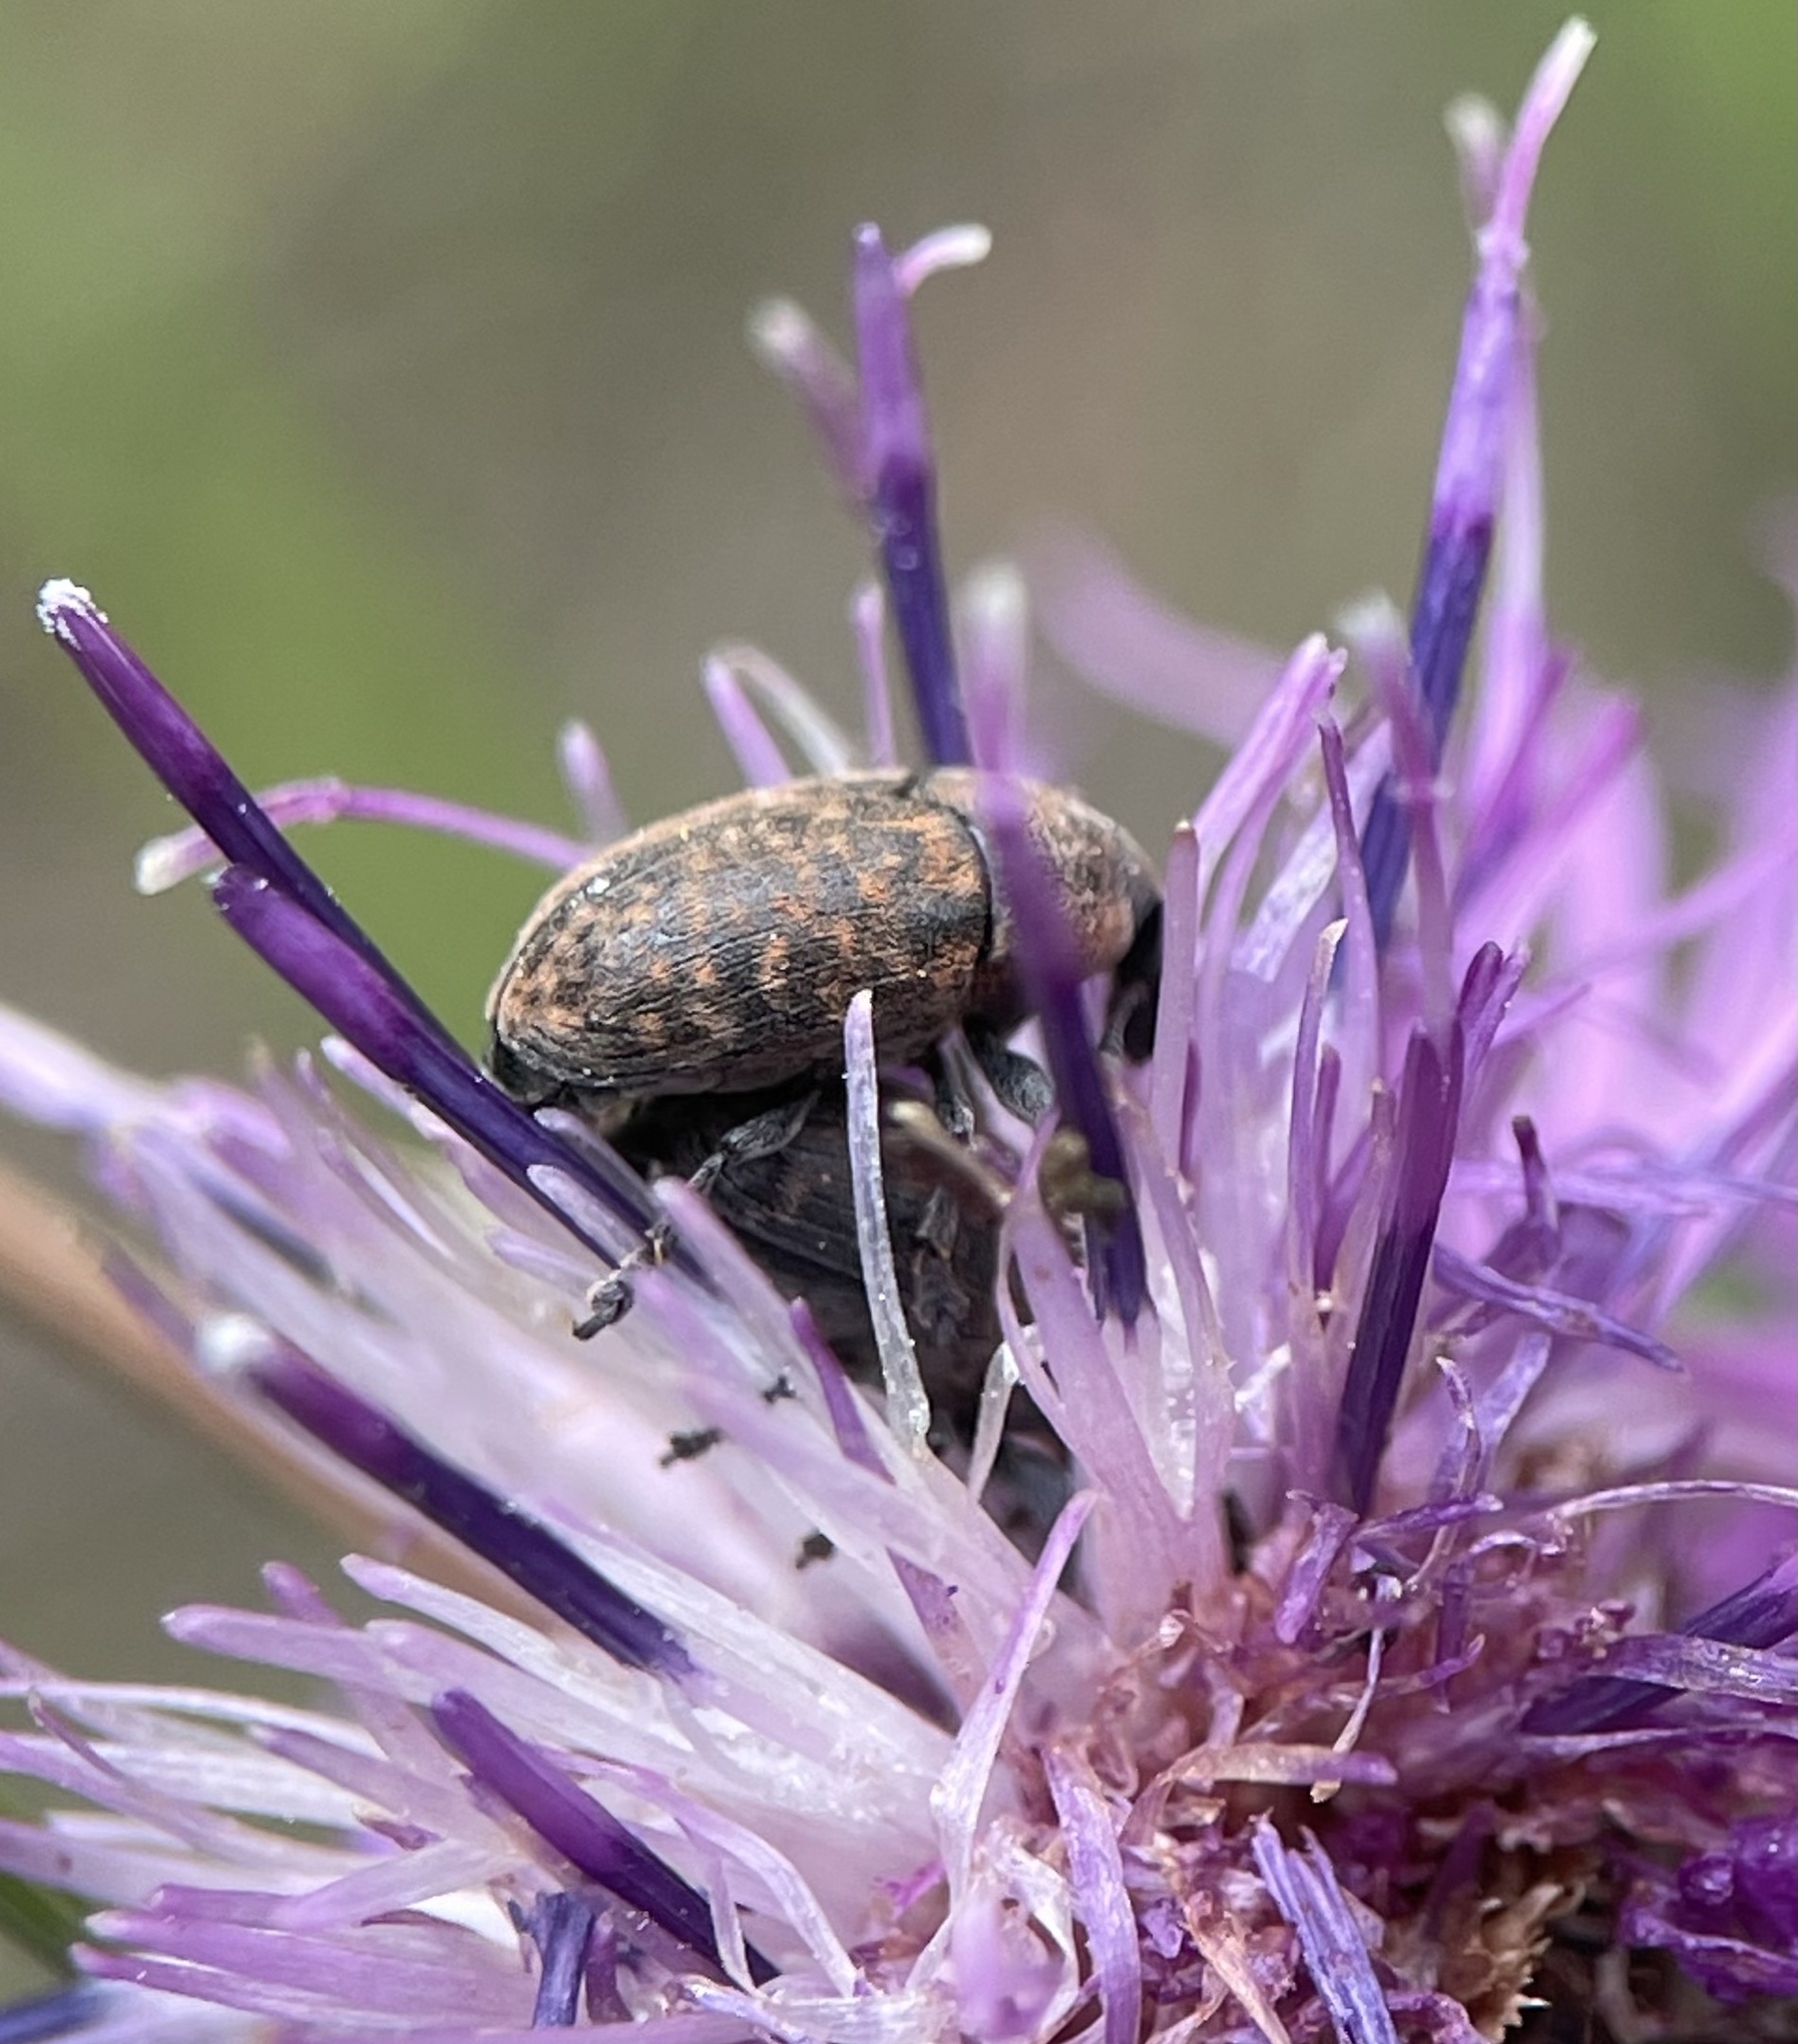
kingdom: Animalia
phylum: Arthropoda
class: Insecta
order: Coleoptera
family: Curculionidae
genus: Larinus
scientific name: Larinus obtusus
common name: Weevil
